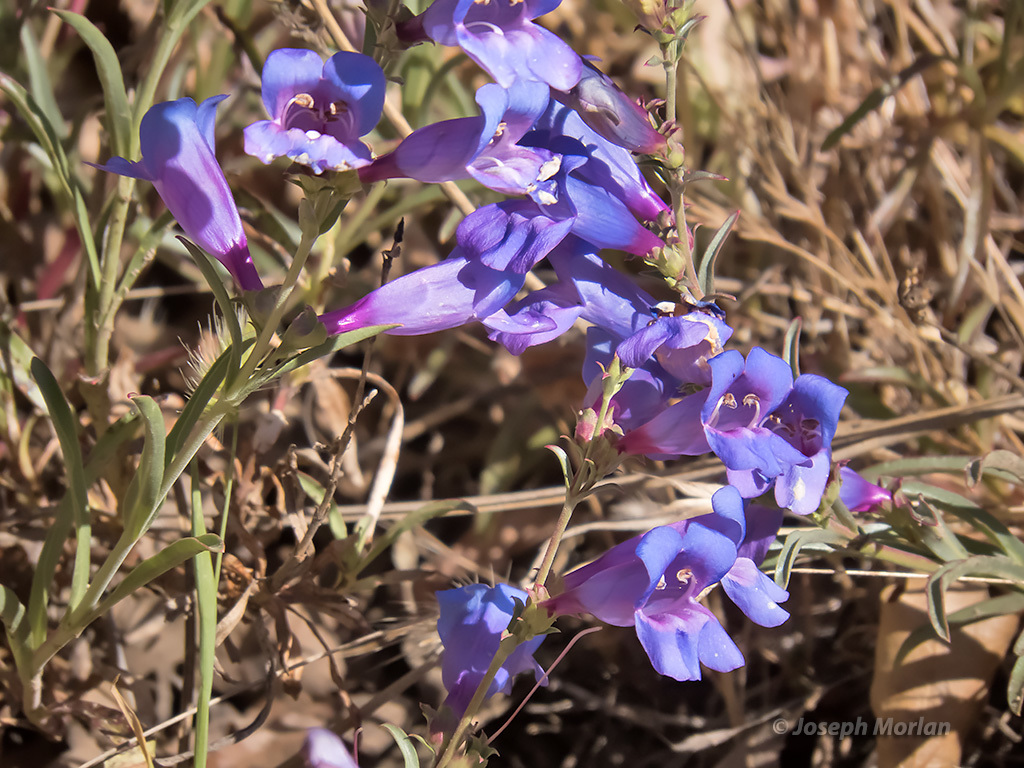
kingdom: Plantae
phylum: Tracheophyta
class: Magnoliopsida
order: Lamiales
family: Plantaginaceae
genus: Penstemon
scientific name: Penstemon heterophyllus
